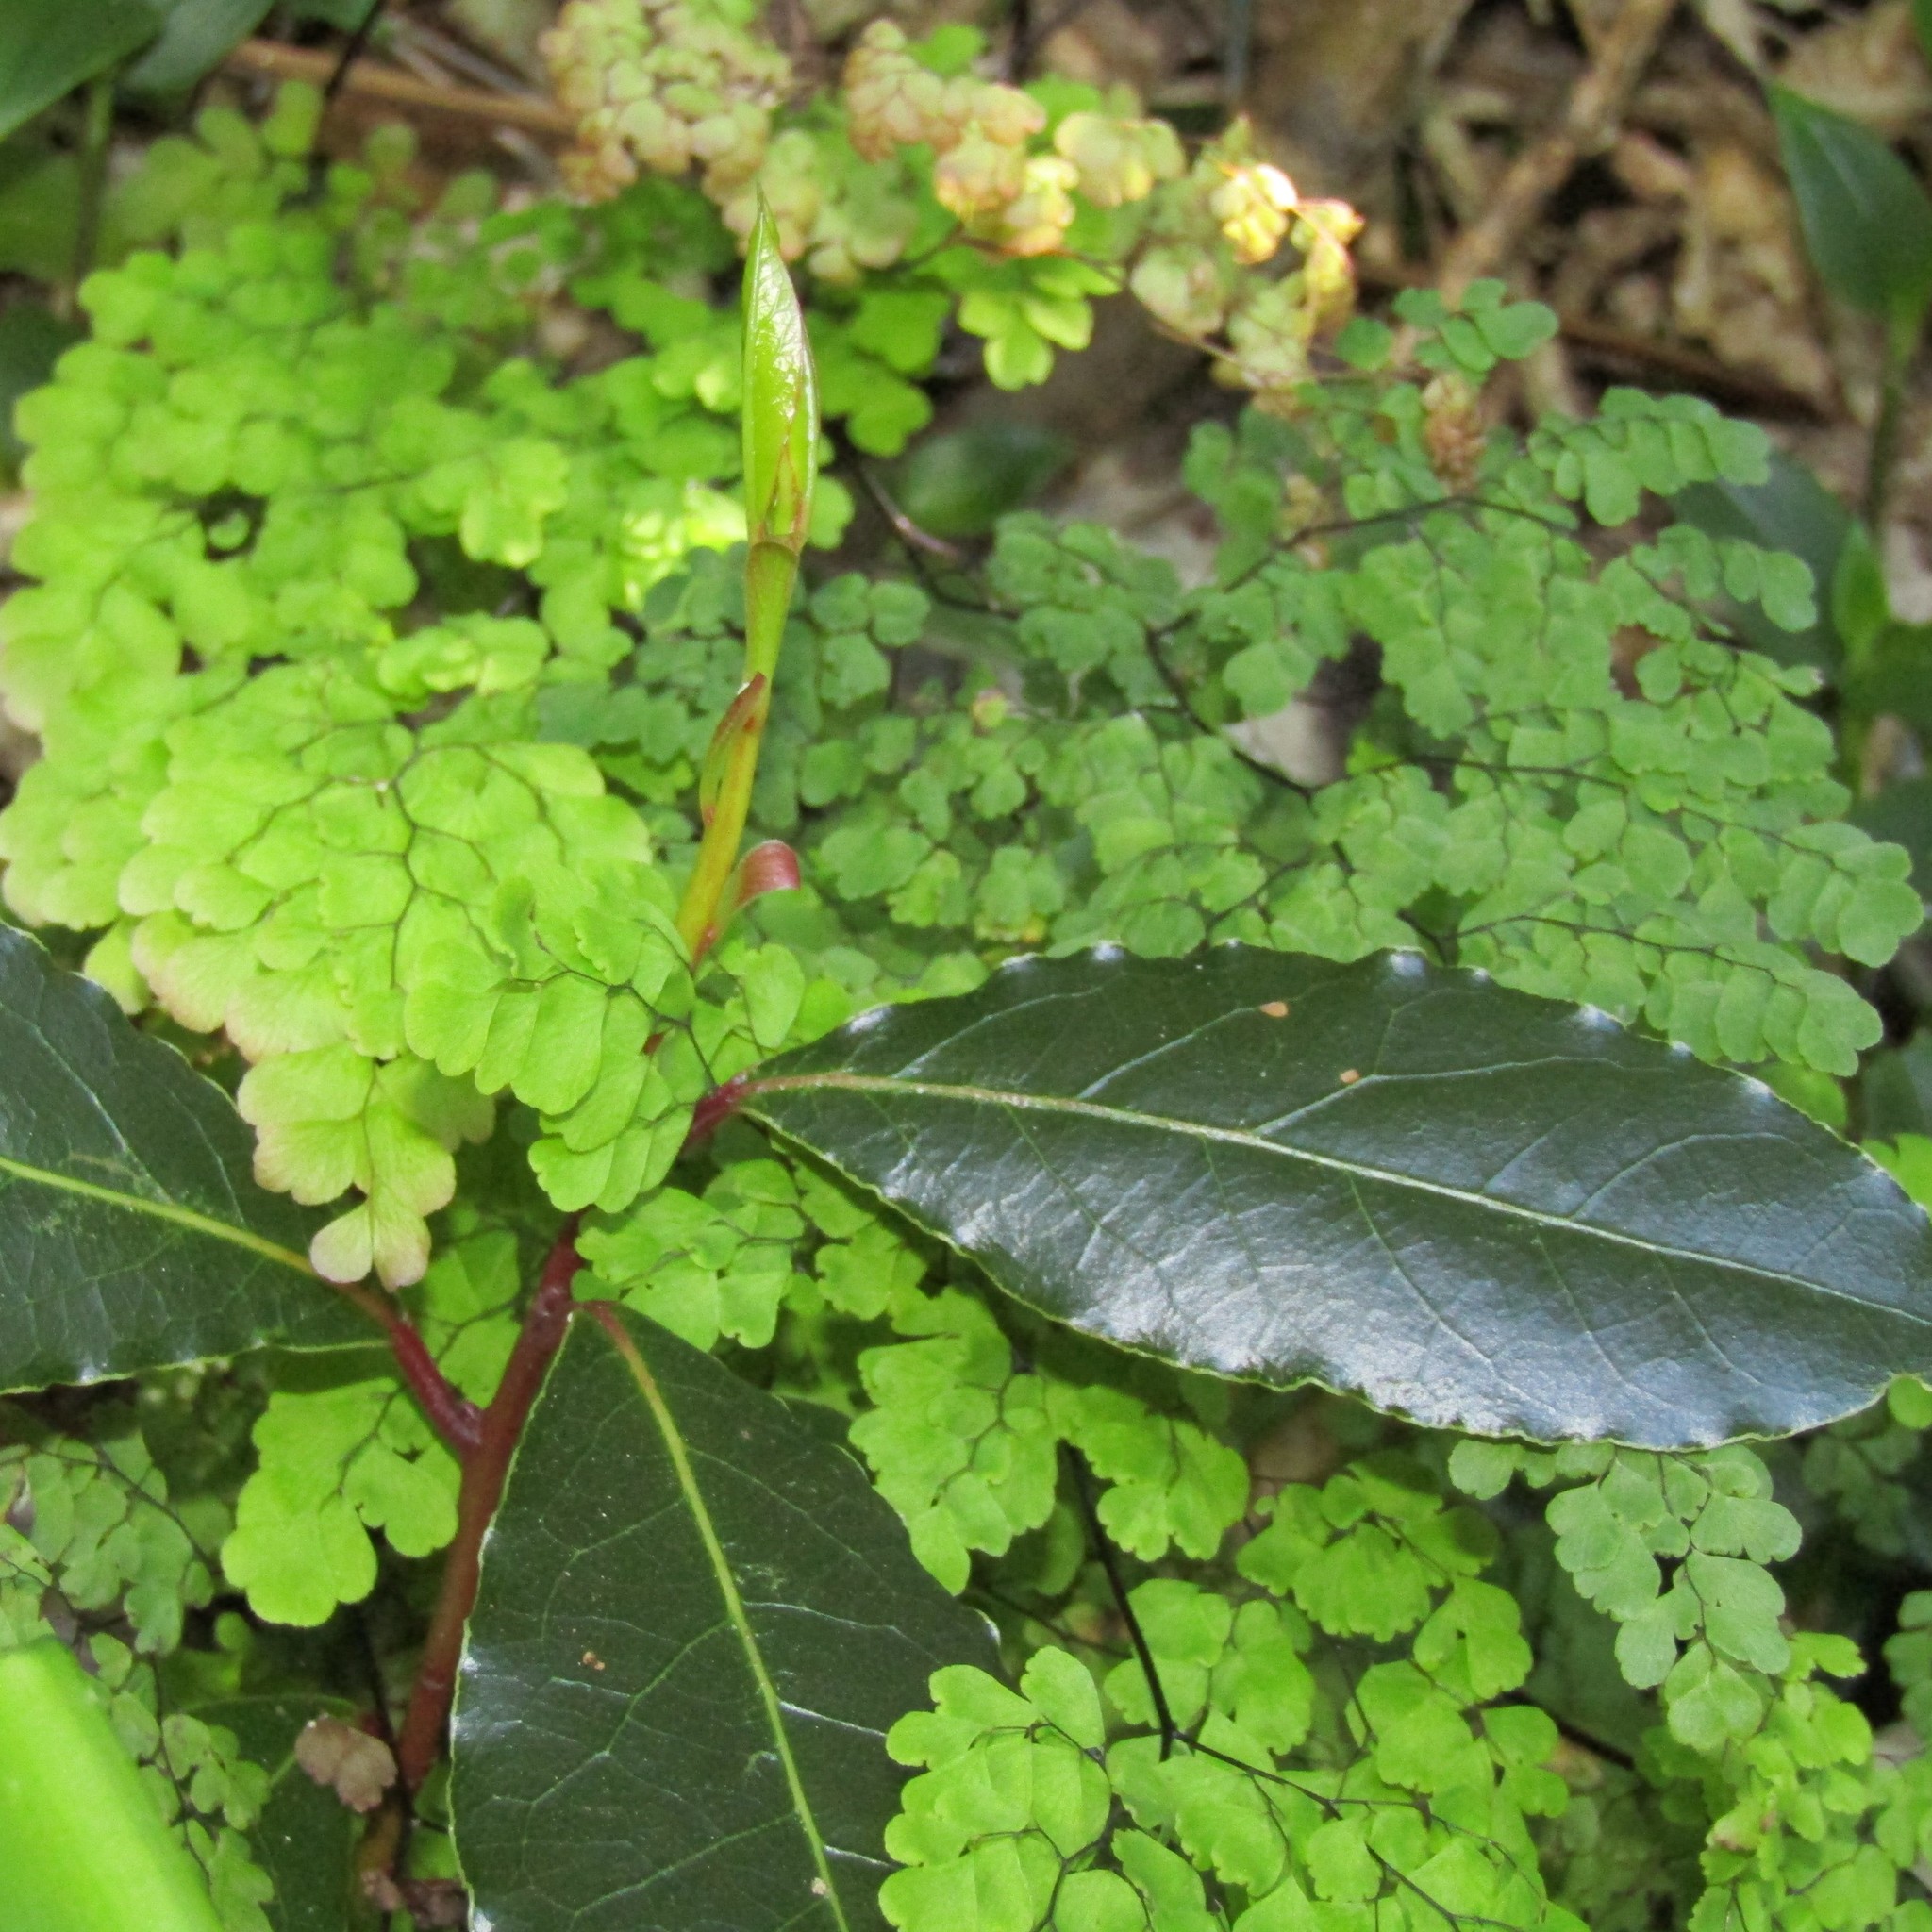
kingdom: Plantae
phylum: Tracheophyta
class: Magnoliopsida
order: Laurales
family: Lauraceae
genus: Laurus
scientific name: Laurus nobilis
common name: Bay
